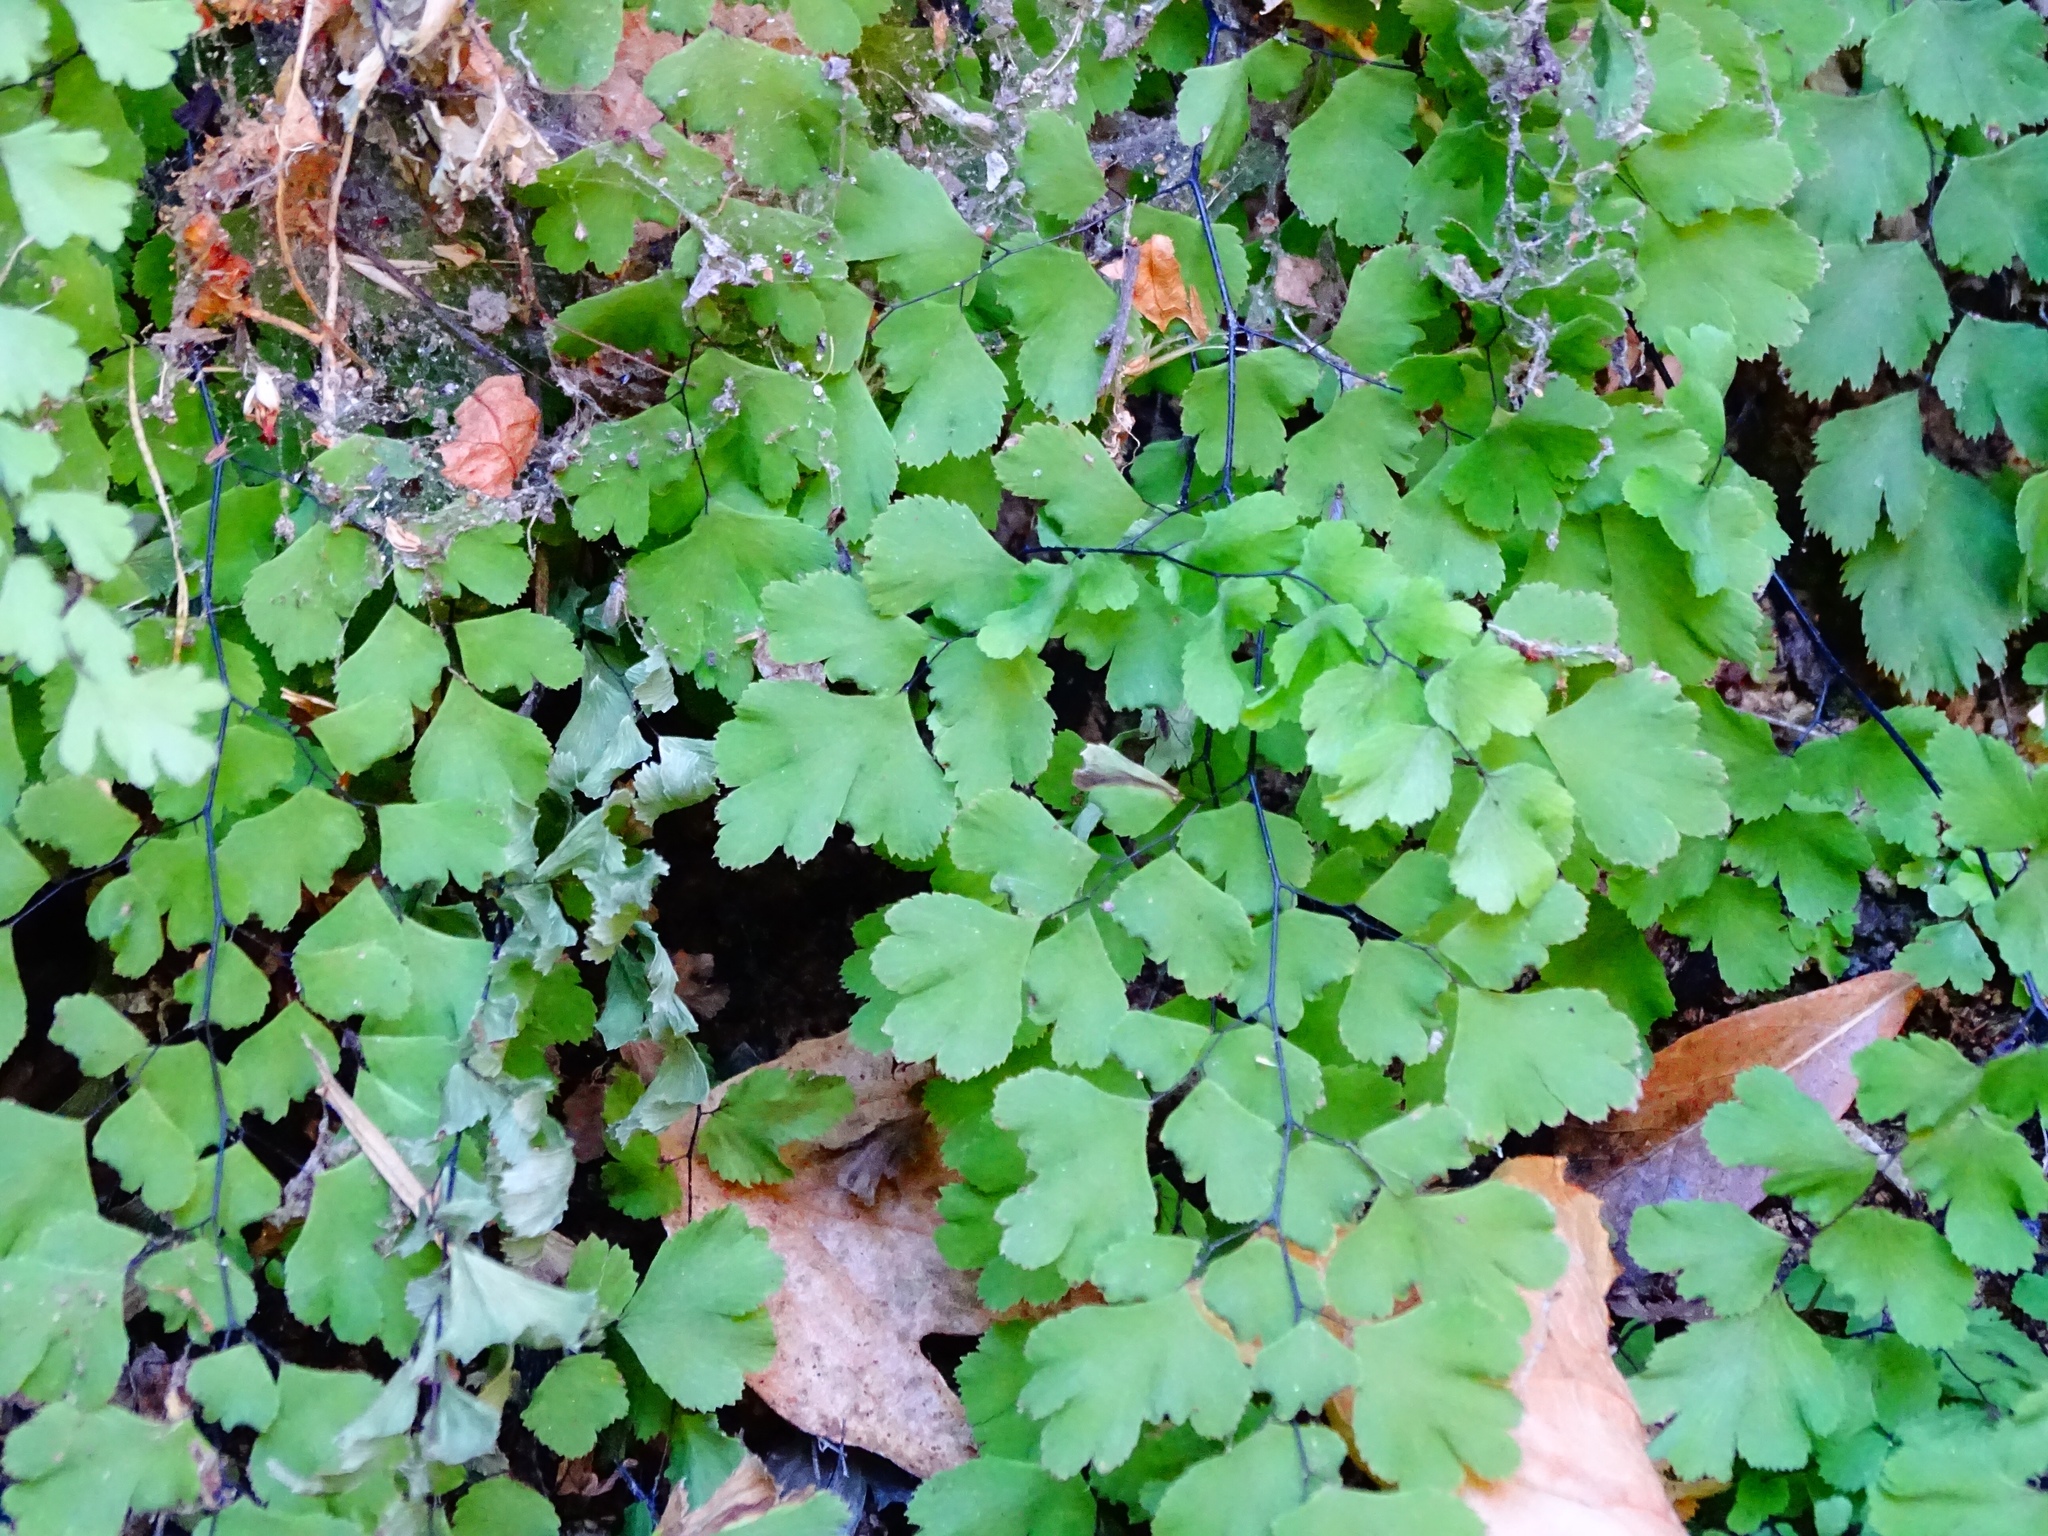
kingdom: Plantae
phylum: Tracheophyta
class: Polypodiopsida
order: Polypodiales
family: Pteridaceae
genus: Adiantum
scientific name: Adiantum capillus-veneris
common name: Maidenhair fern
